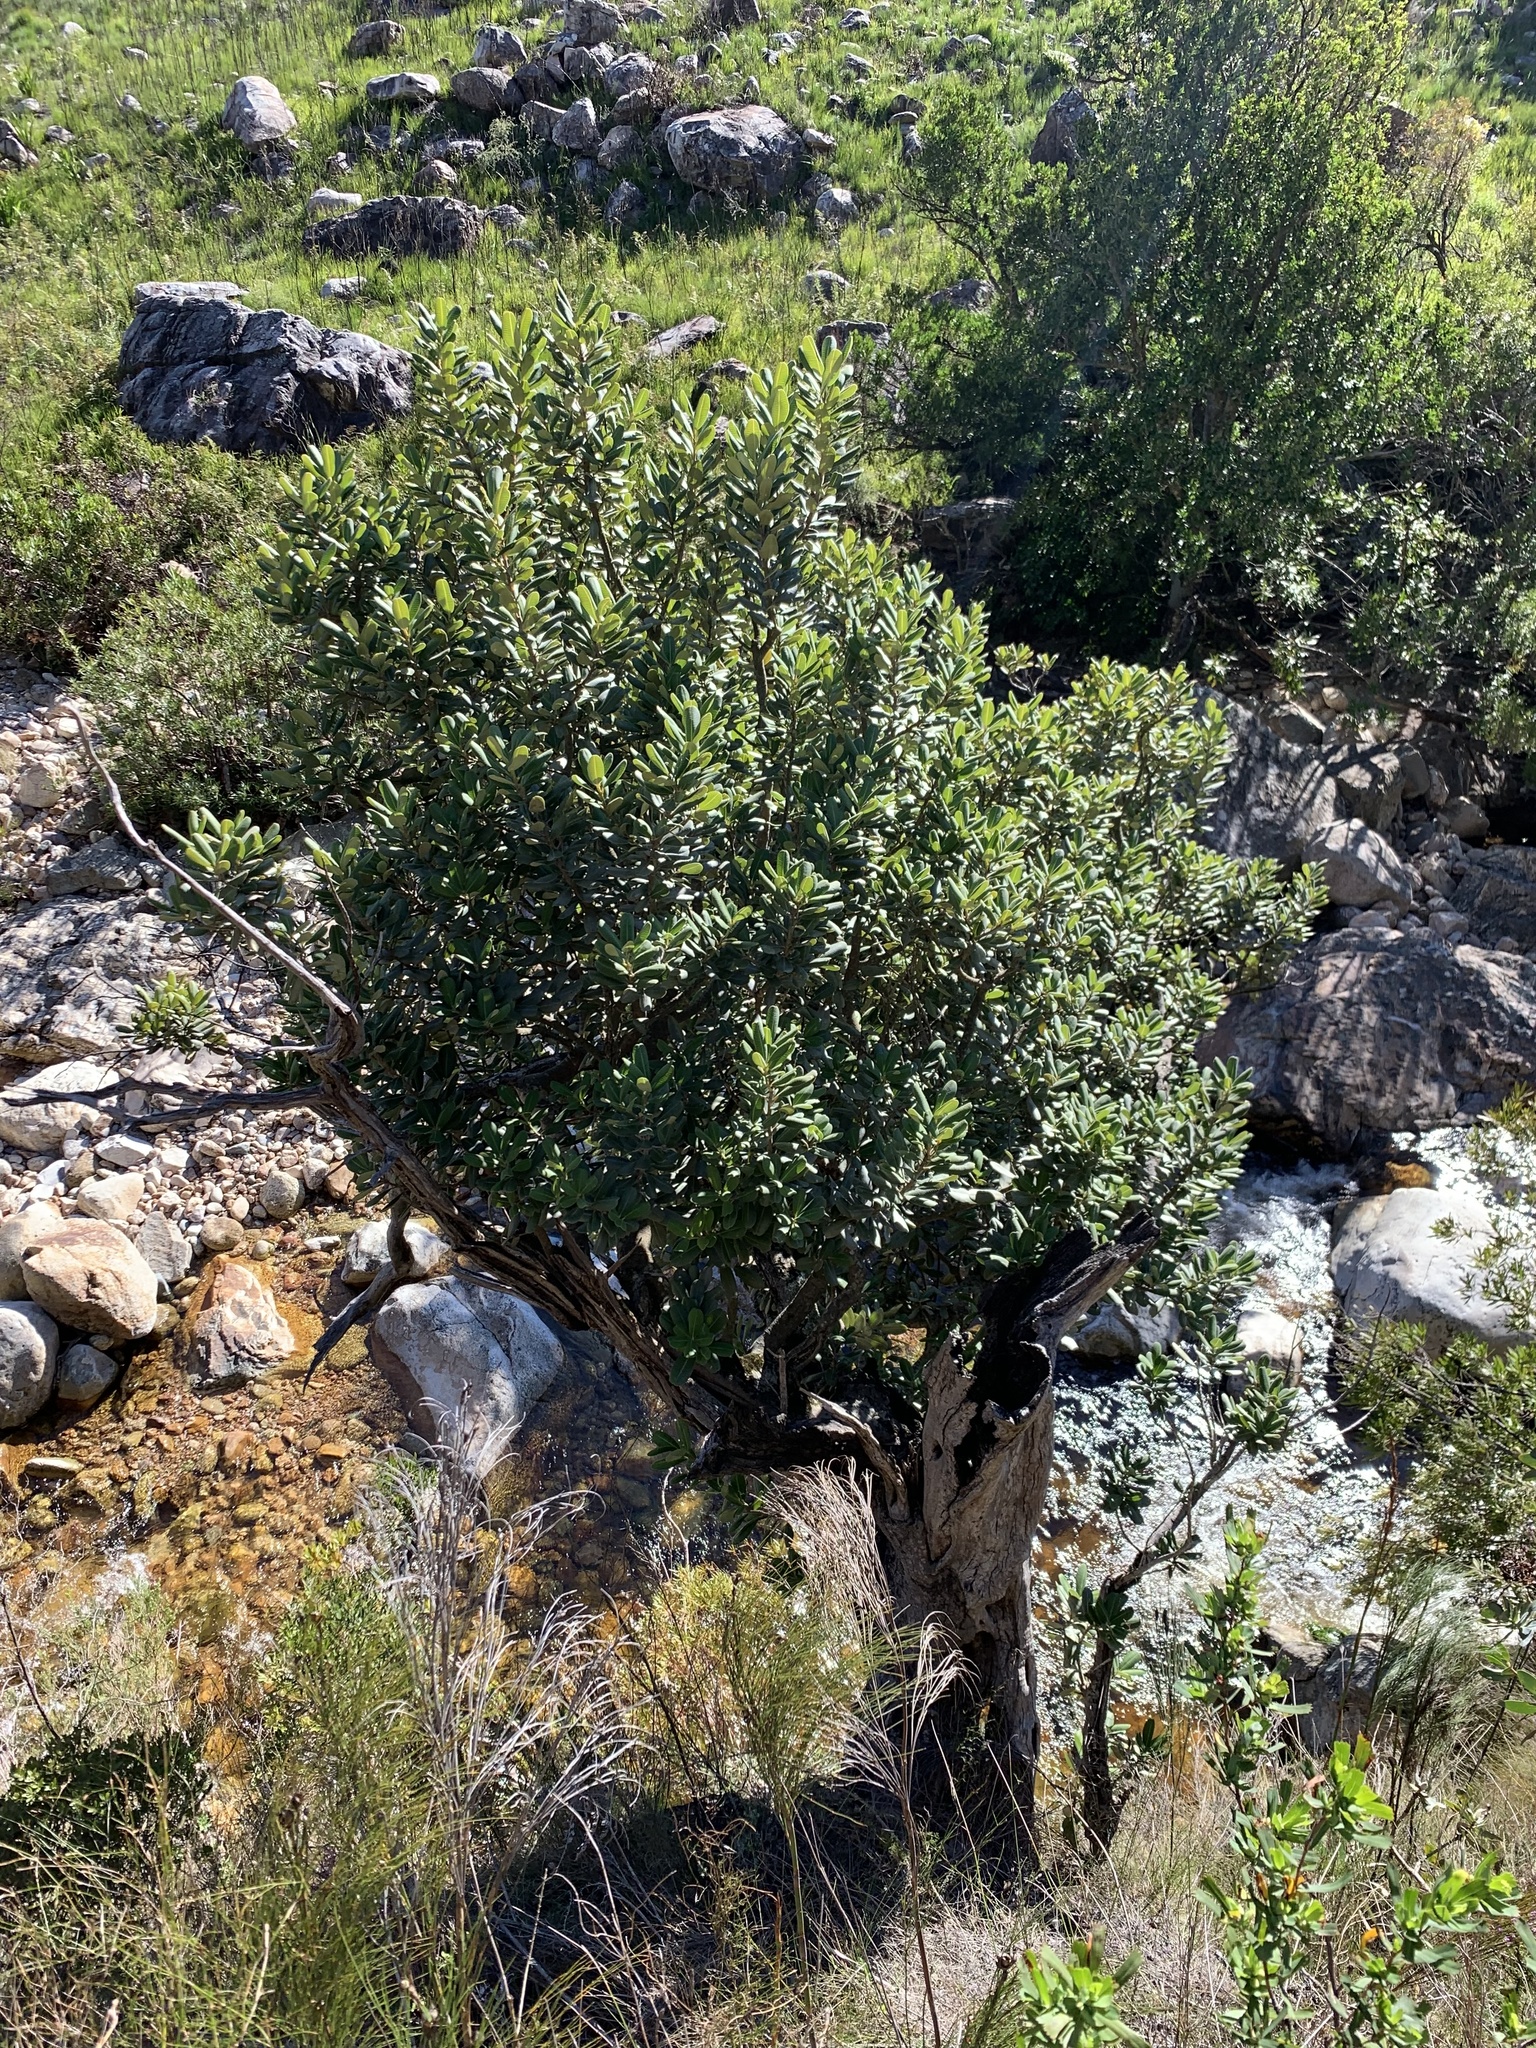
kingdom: Plantae
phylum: Tracheophyta
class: Magnoliopsida
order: Sapindales
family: Anacardiaceae
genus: Heeria
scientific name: Heeria argentea
